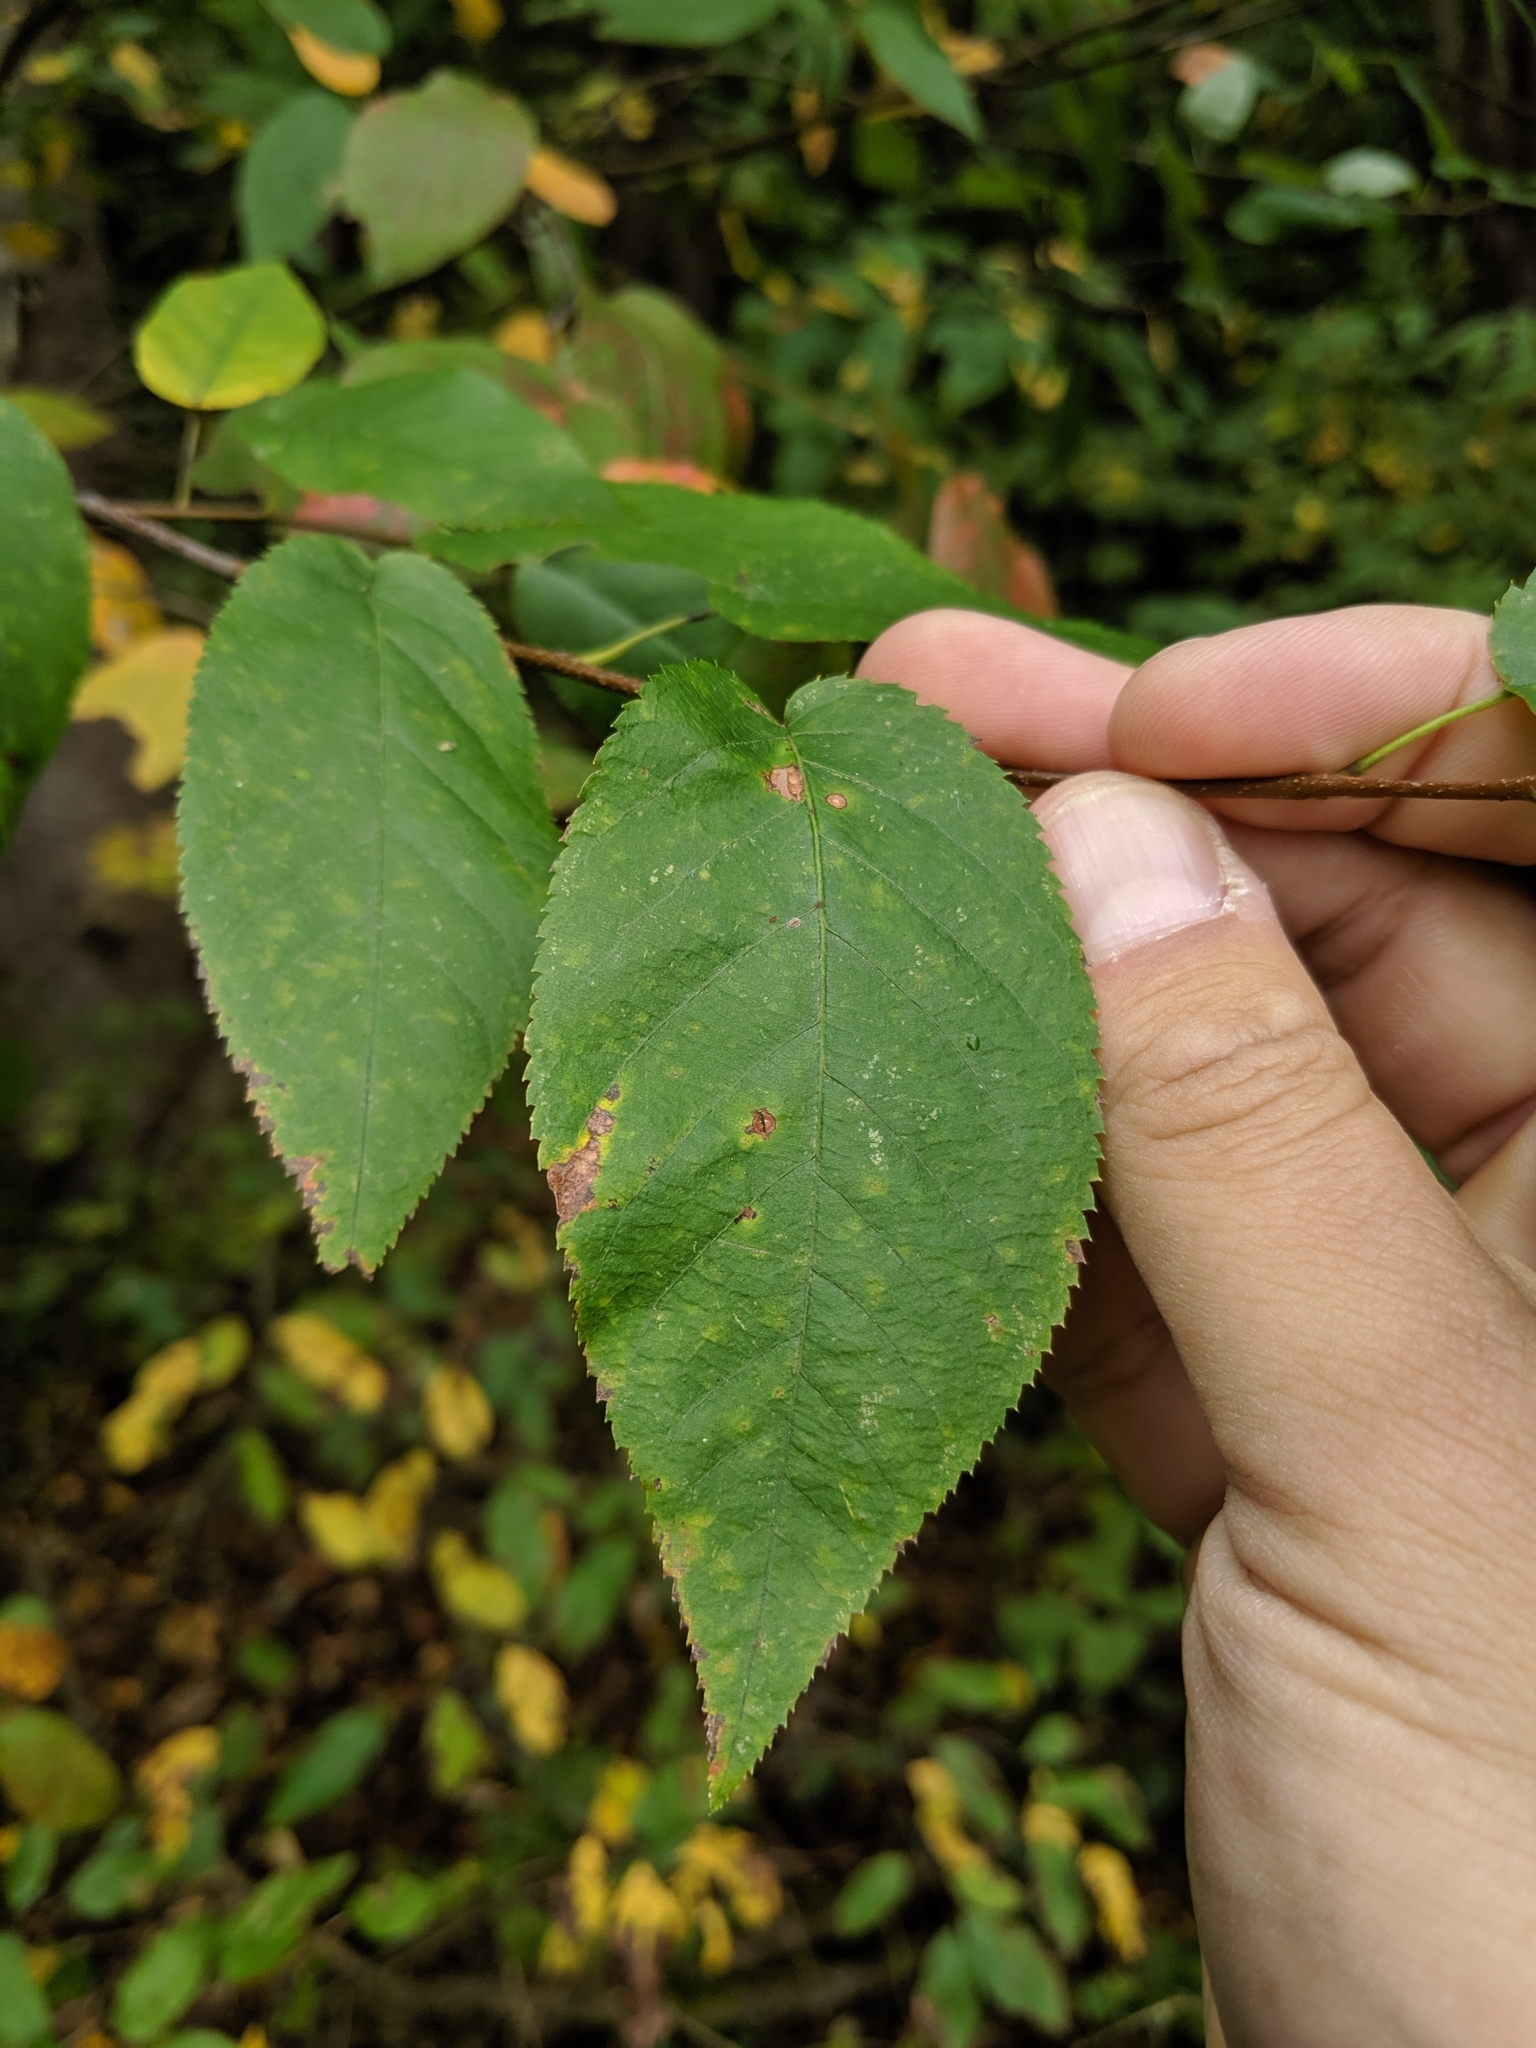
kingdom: Plantae
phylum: Tracheophyta
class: Magnoliopsida
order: Rosales
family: Rosaceae
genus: Amelanchier
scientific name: Amelanchier arborea
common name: Downy serviceberry
